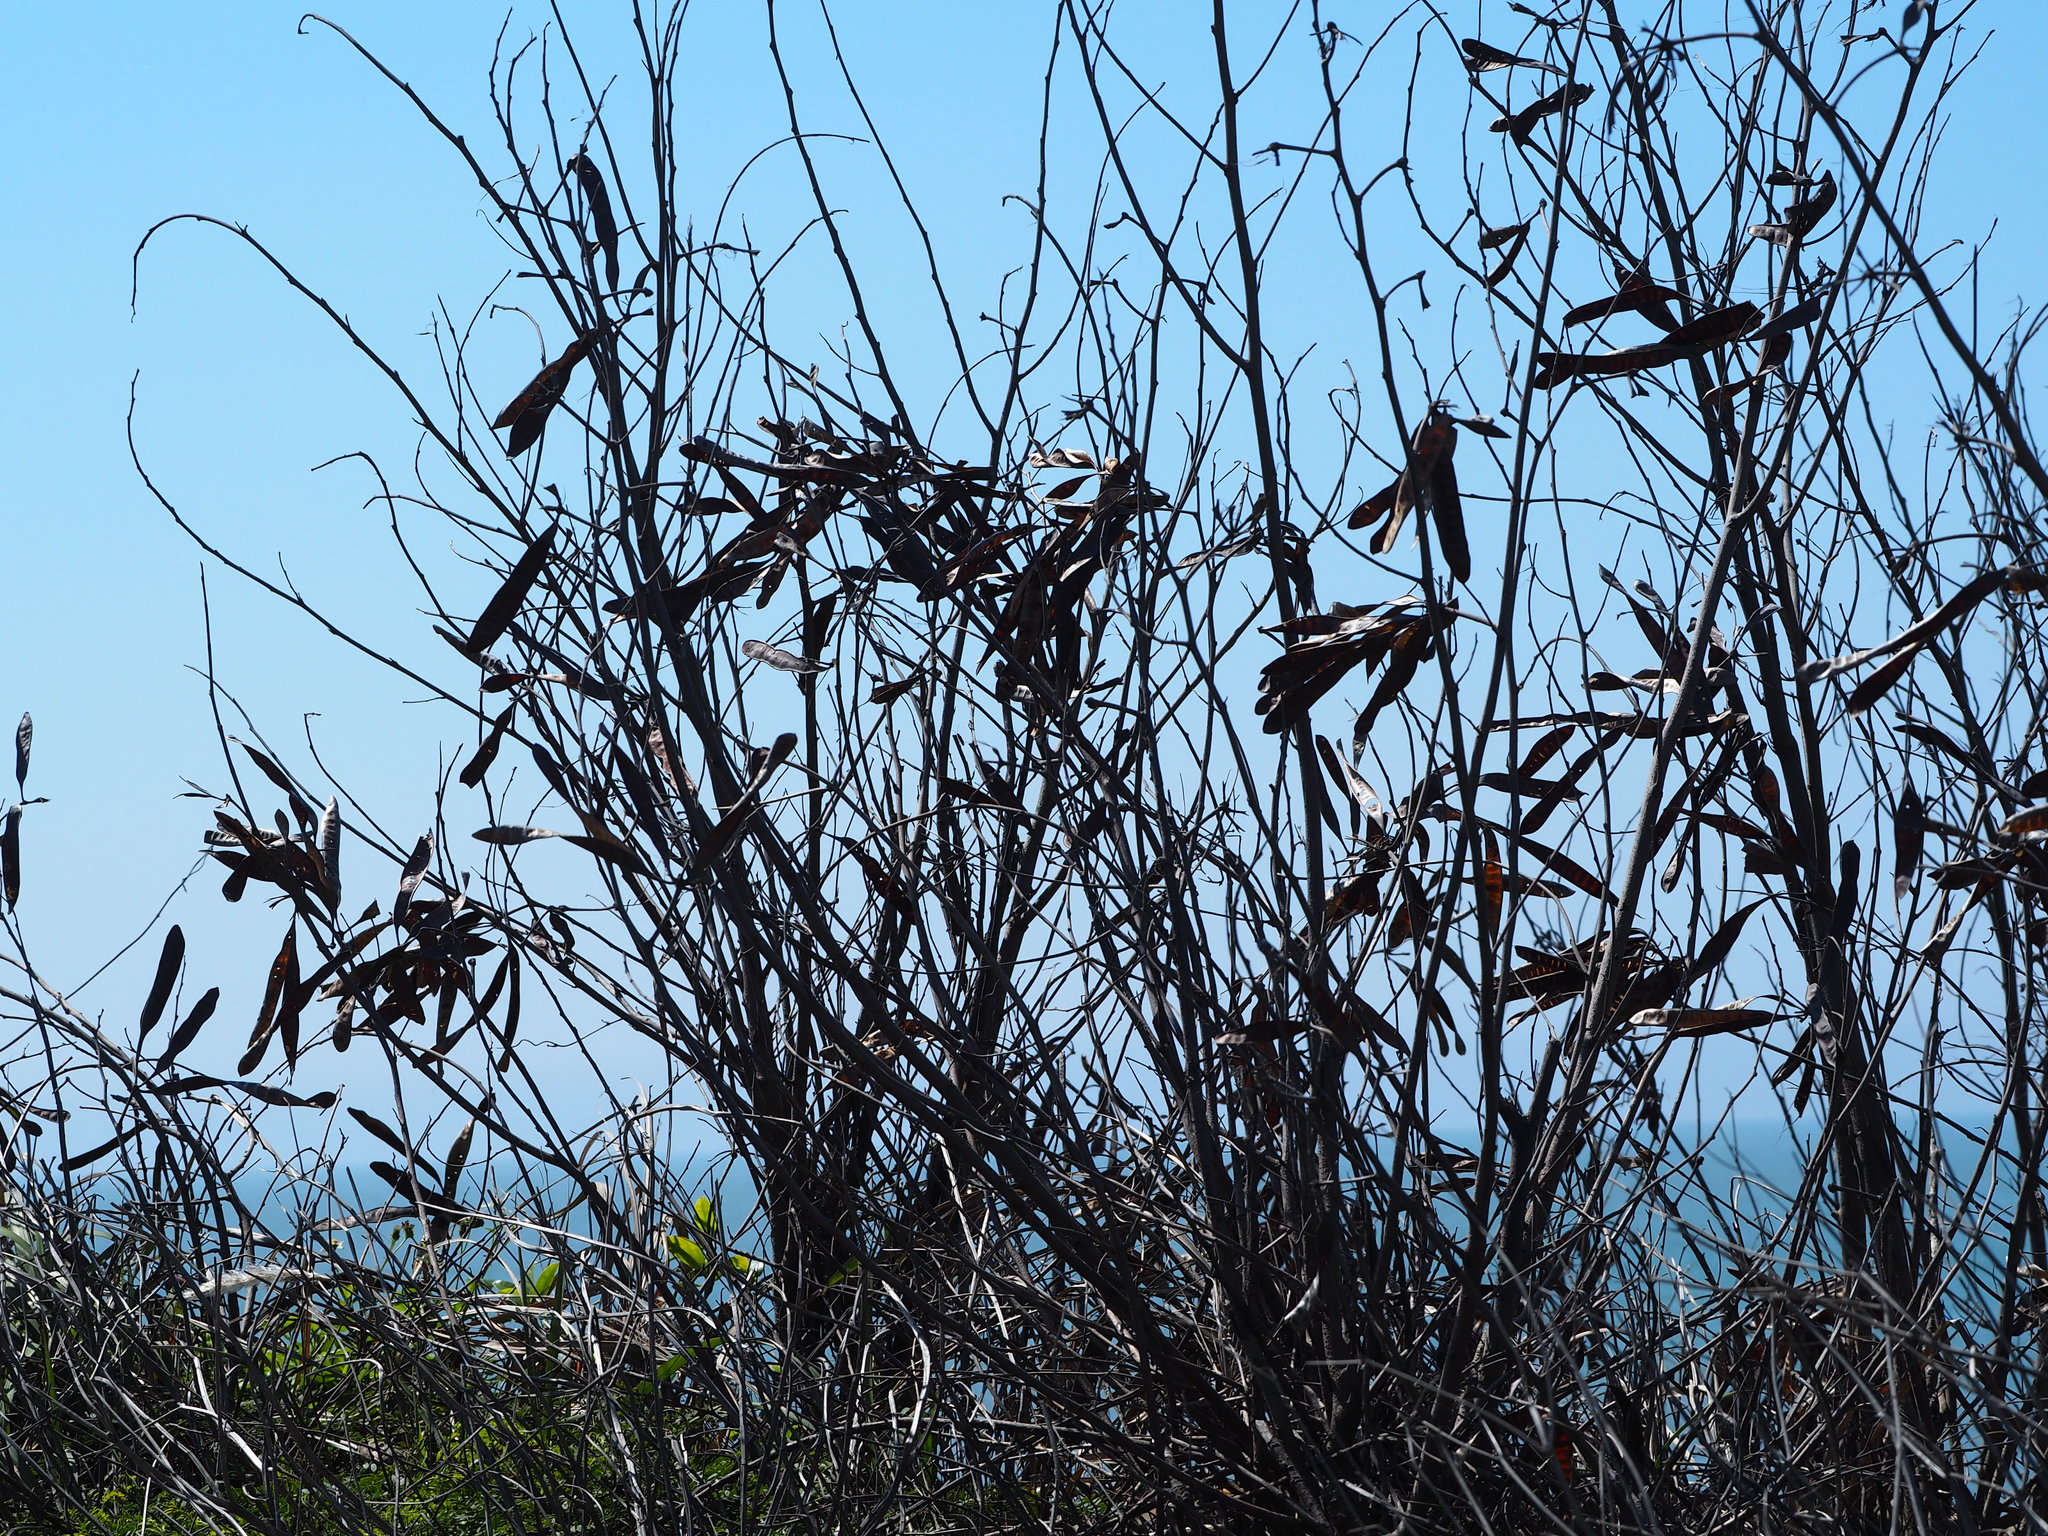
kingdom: Plantae
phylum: Tracheophyta
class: Magnoliopsida
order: Fabales
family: Fabaceae
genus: Leucaena
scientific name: Leucaena leucocephala
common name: White leadtree
